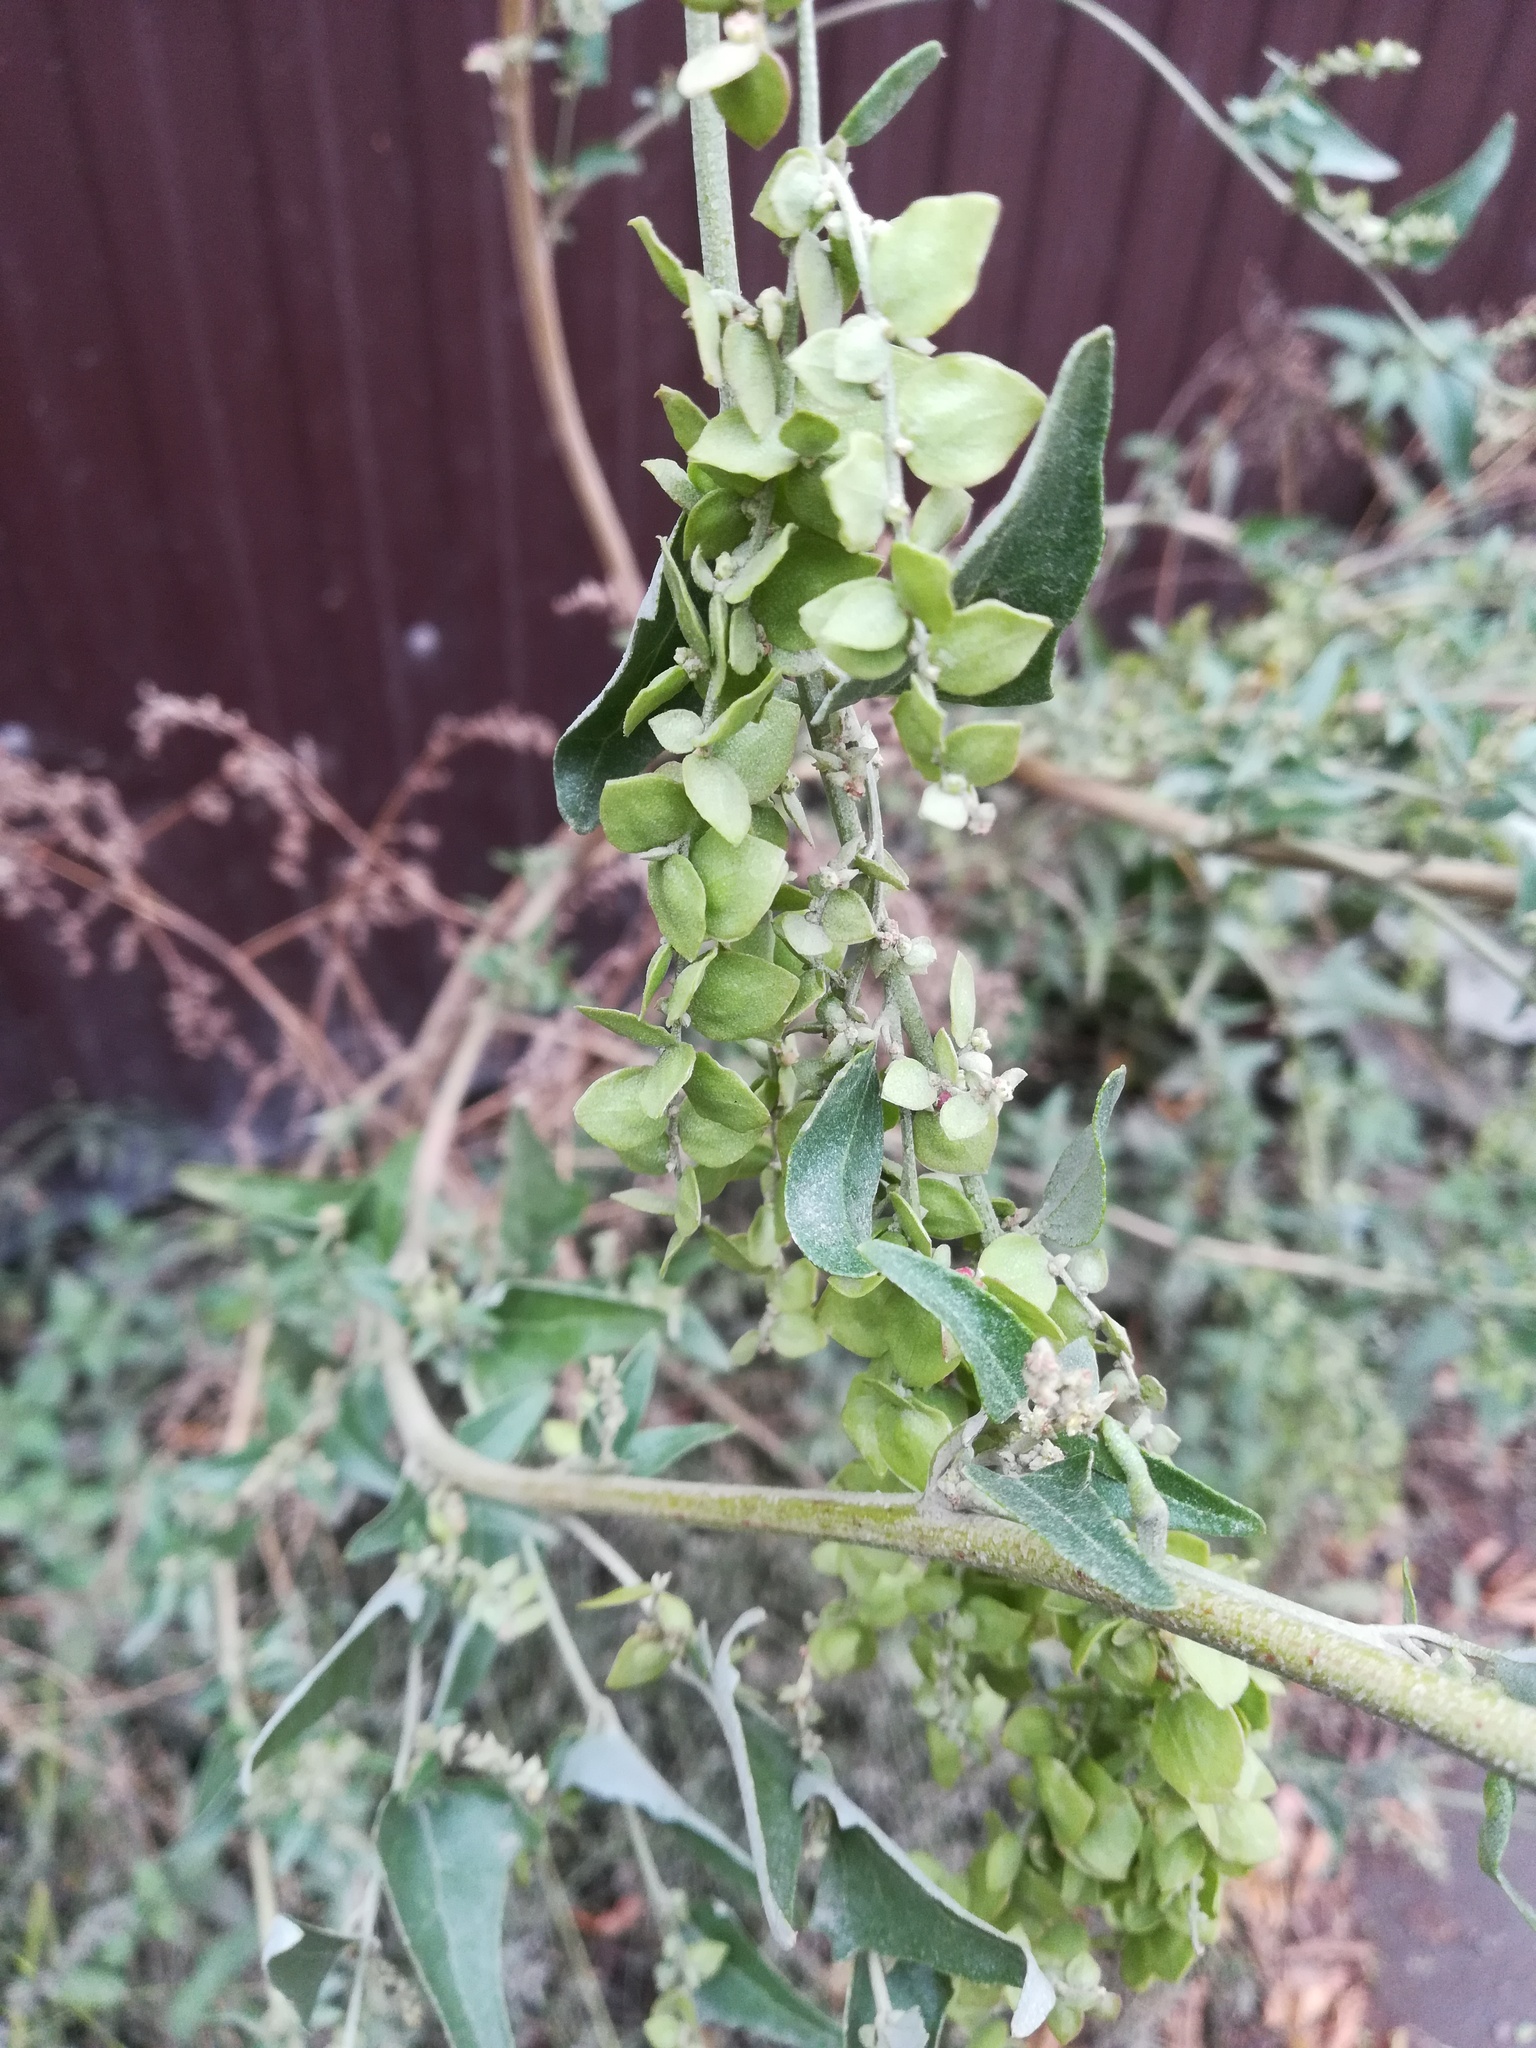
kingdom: Plantae
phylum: Tracheophyta
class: Magnoliopsida
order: Caryophyllales
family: Amaranthaceae
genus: Atriplex
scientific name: Atriplex sagittata
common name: Purple orache
